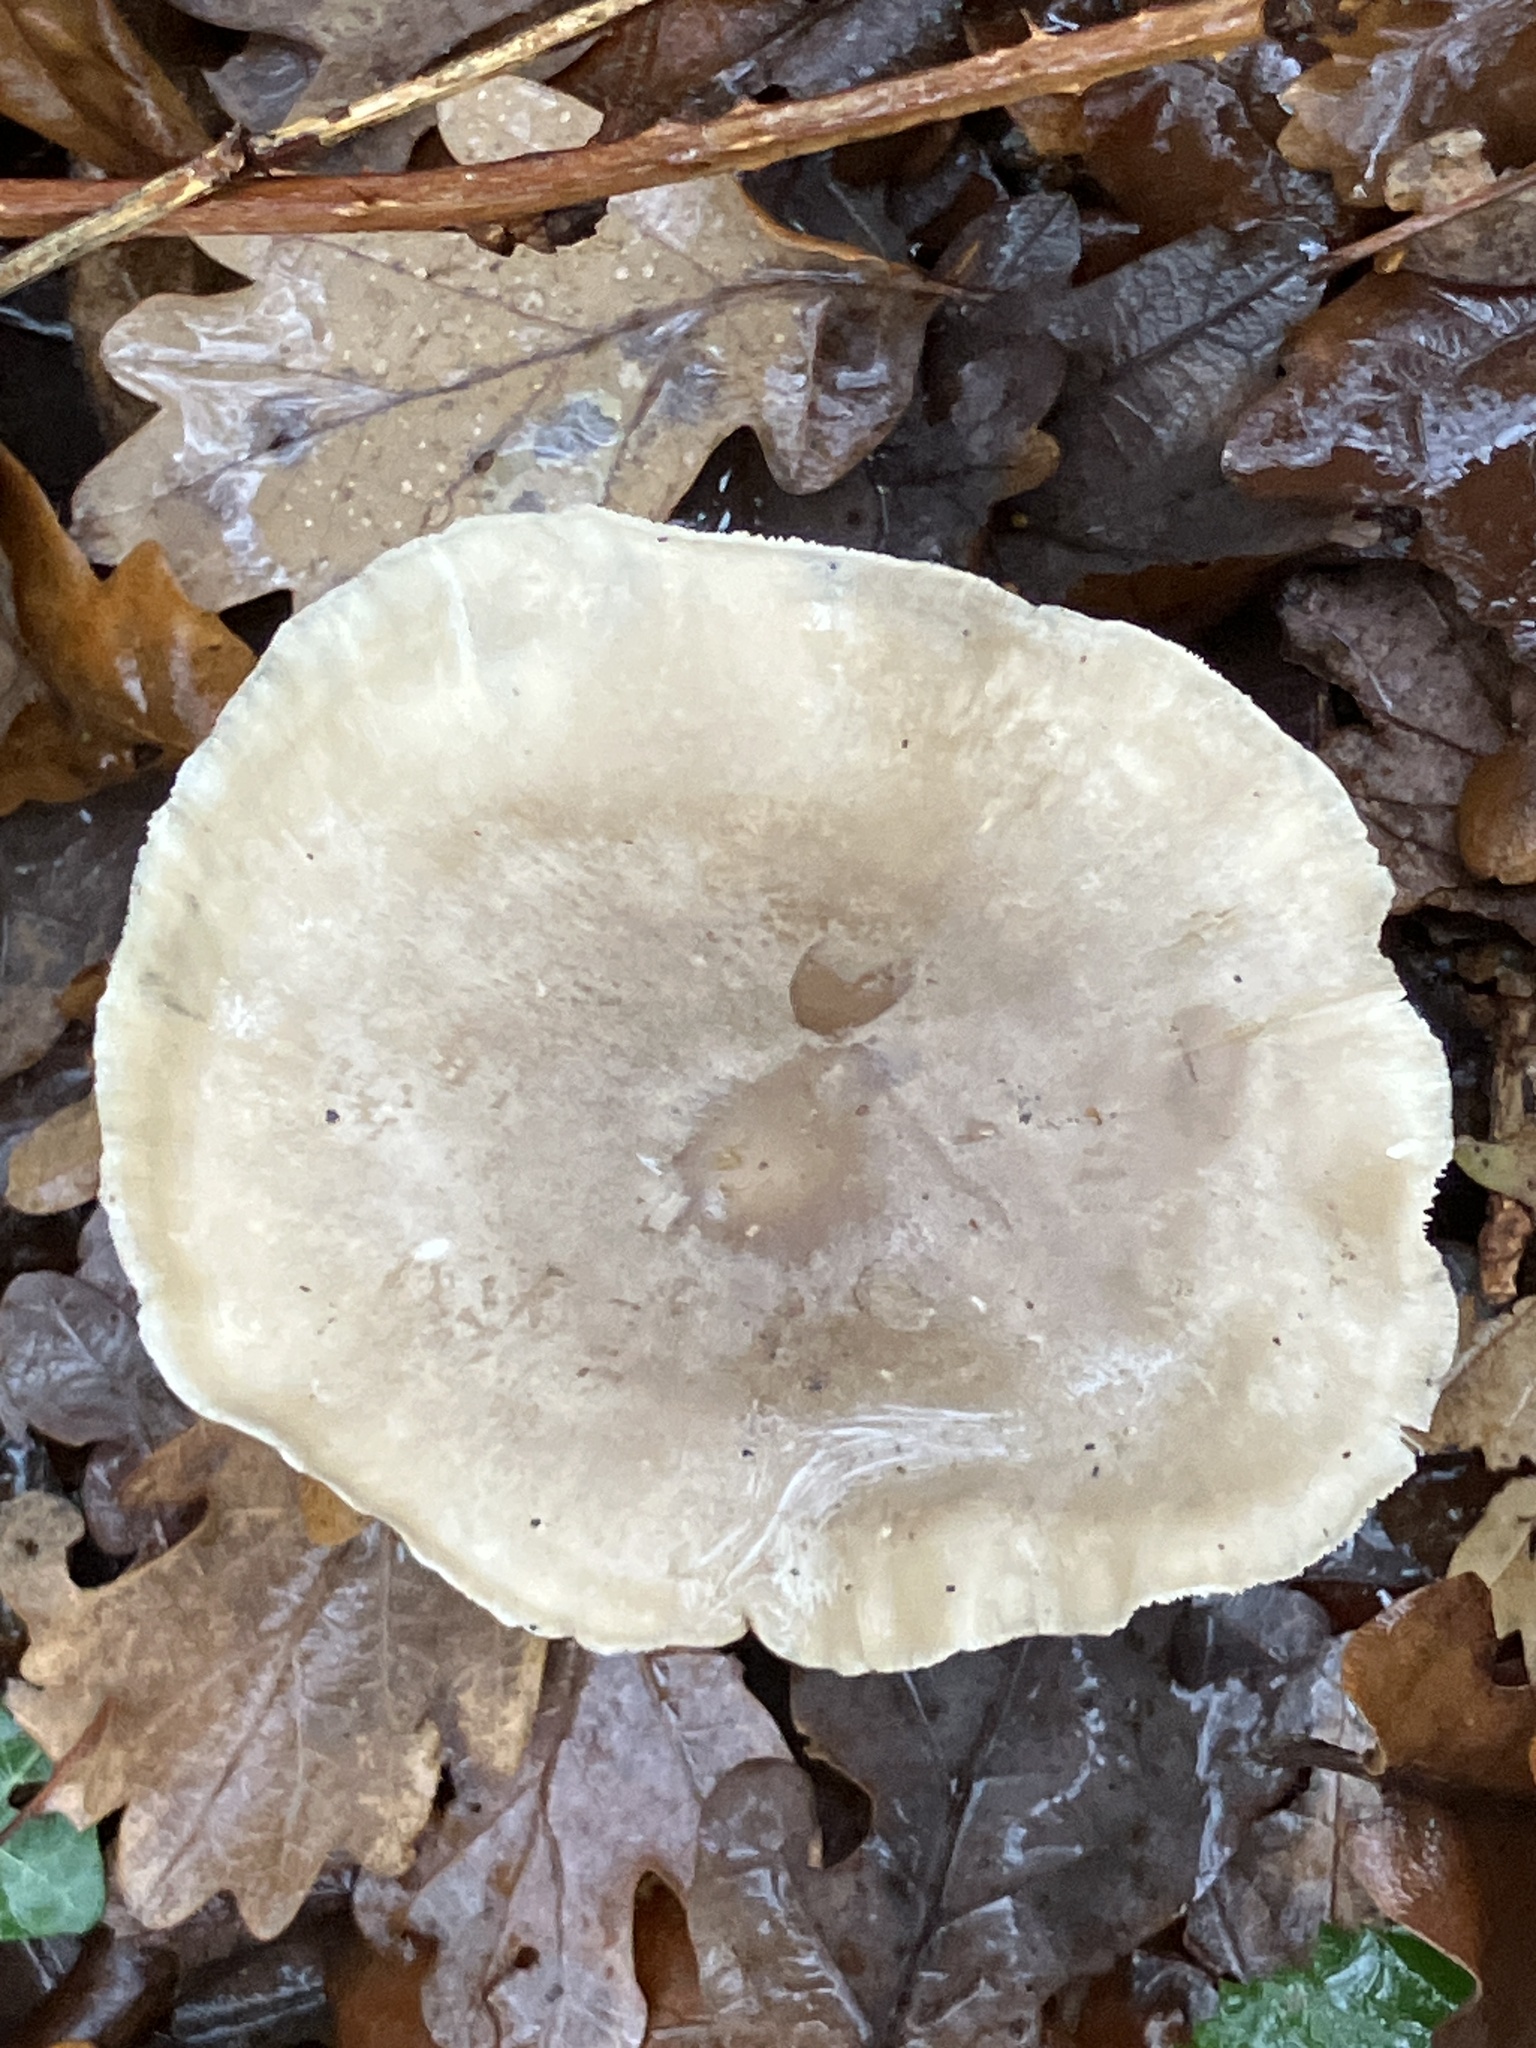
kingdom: Fungi
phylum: Basidiomycota
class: Agaricomycetes
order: Agaricales
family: Tricholomataceae
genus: Clitocybe
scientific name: Clitocybe nebularis
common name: Clouded agaric
